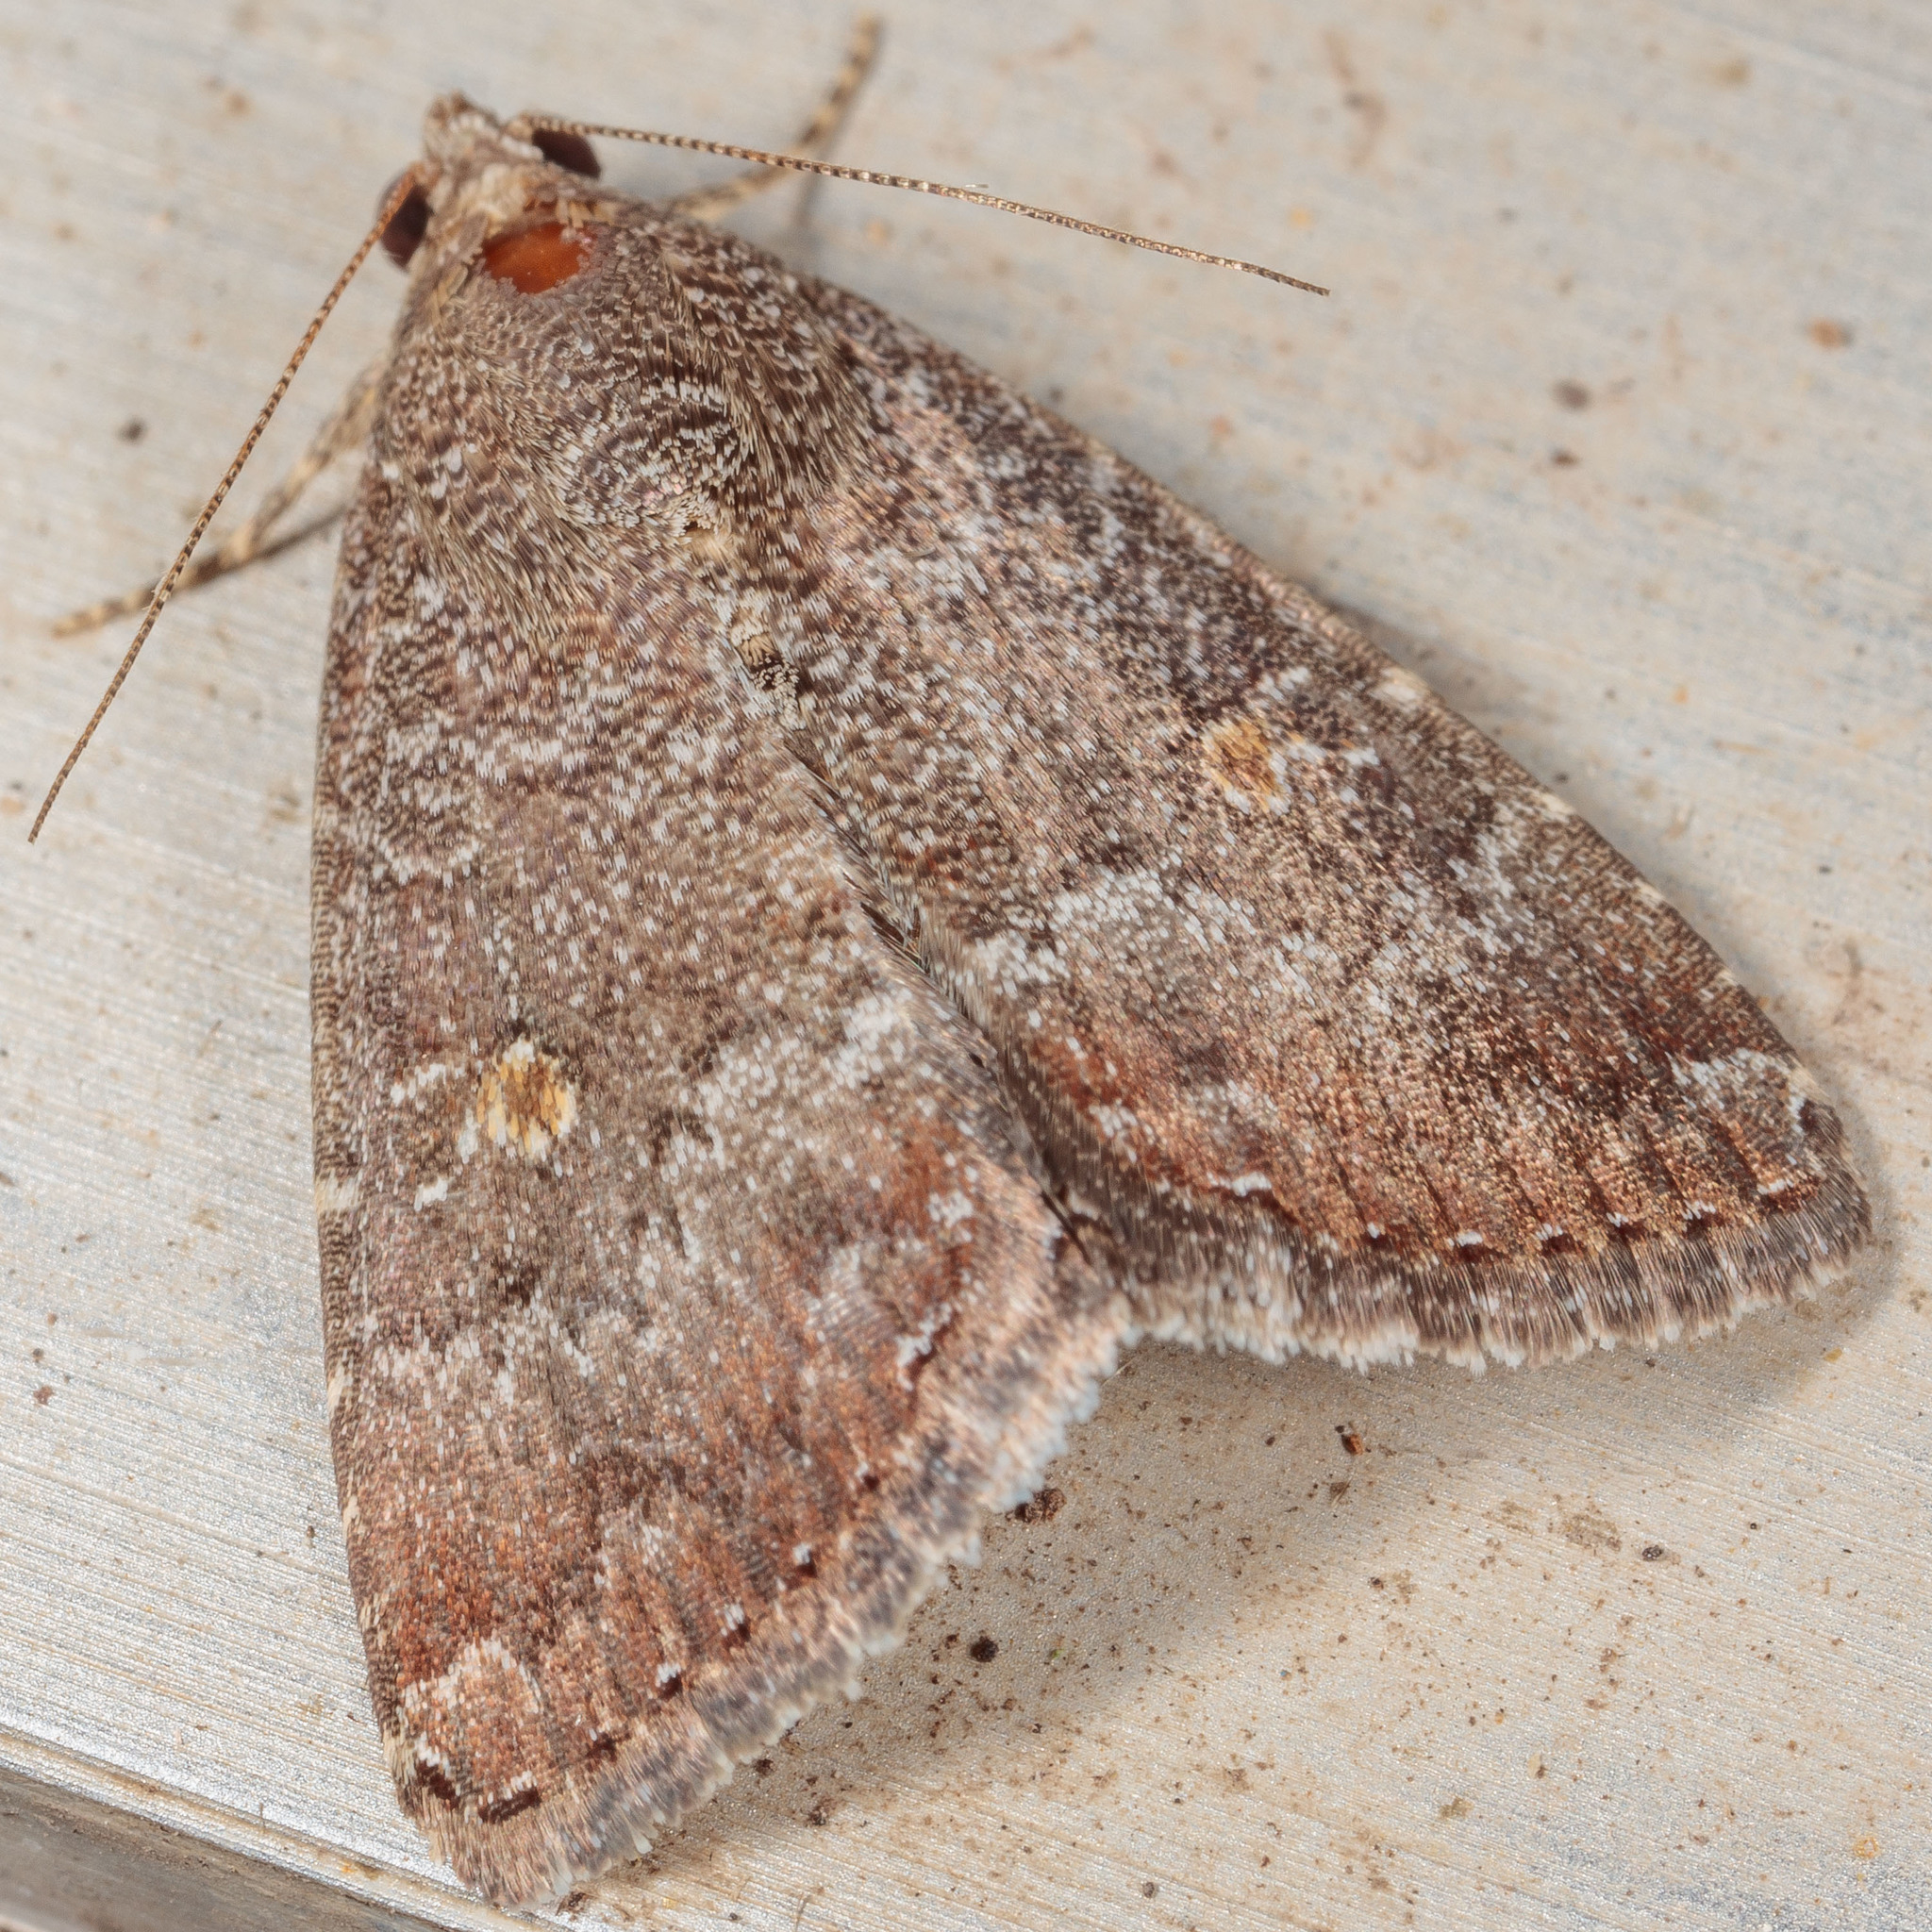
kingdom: Animalia
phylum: Arthropoda
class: Insecta
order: Lepidoptera
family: Noctuidae
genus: Amyna
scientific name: Amyna stricta
